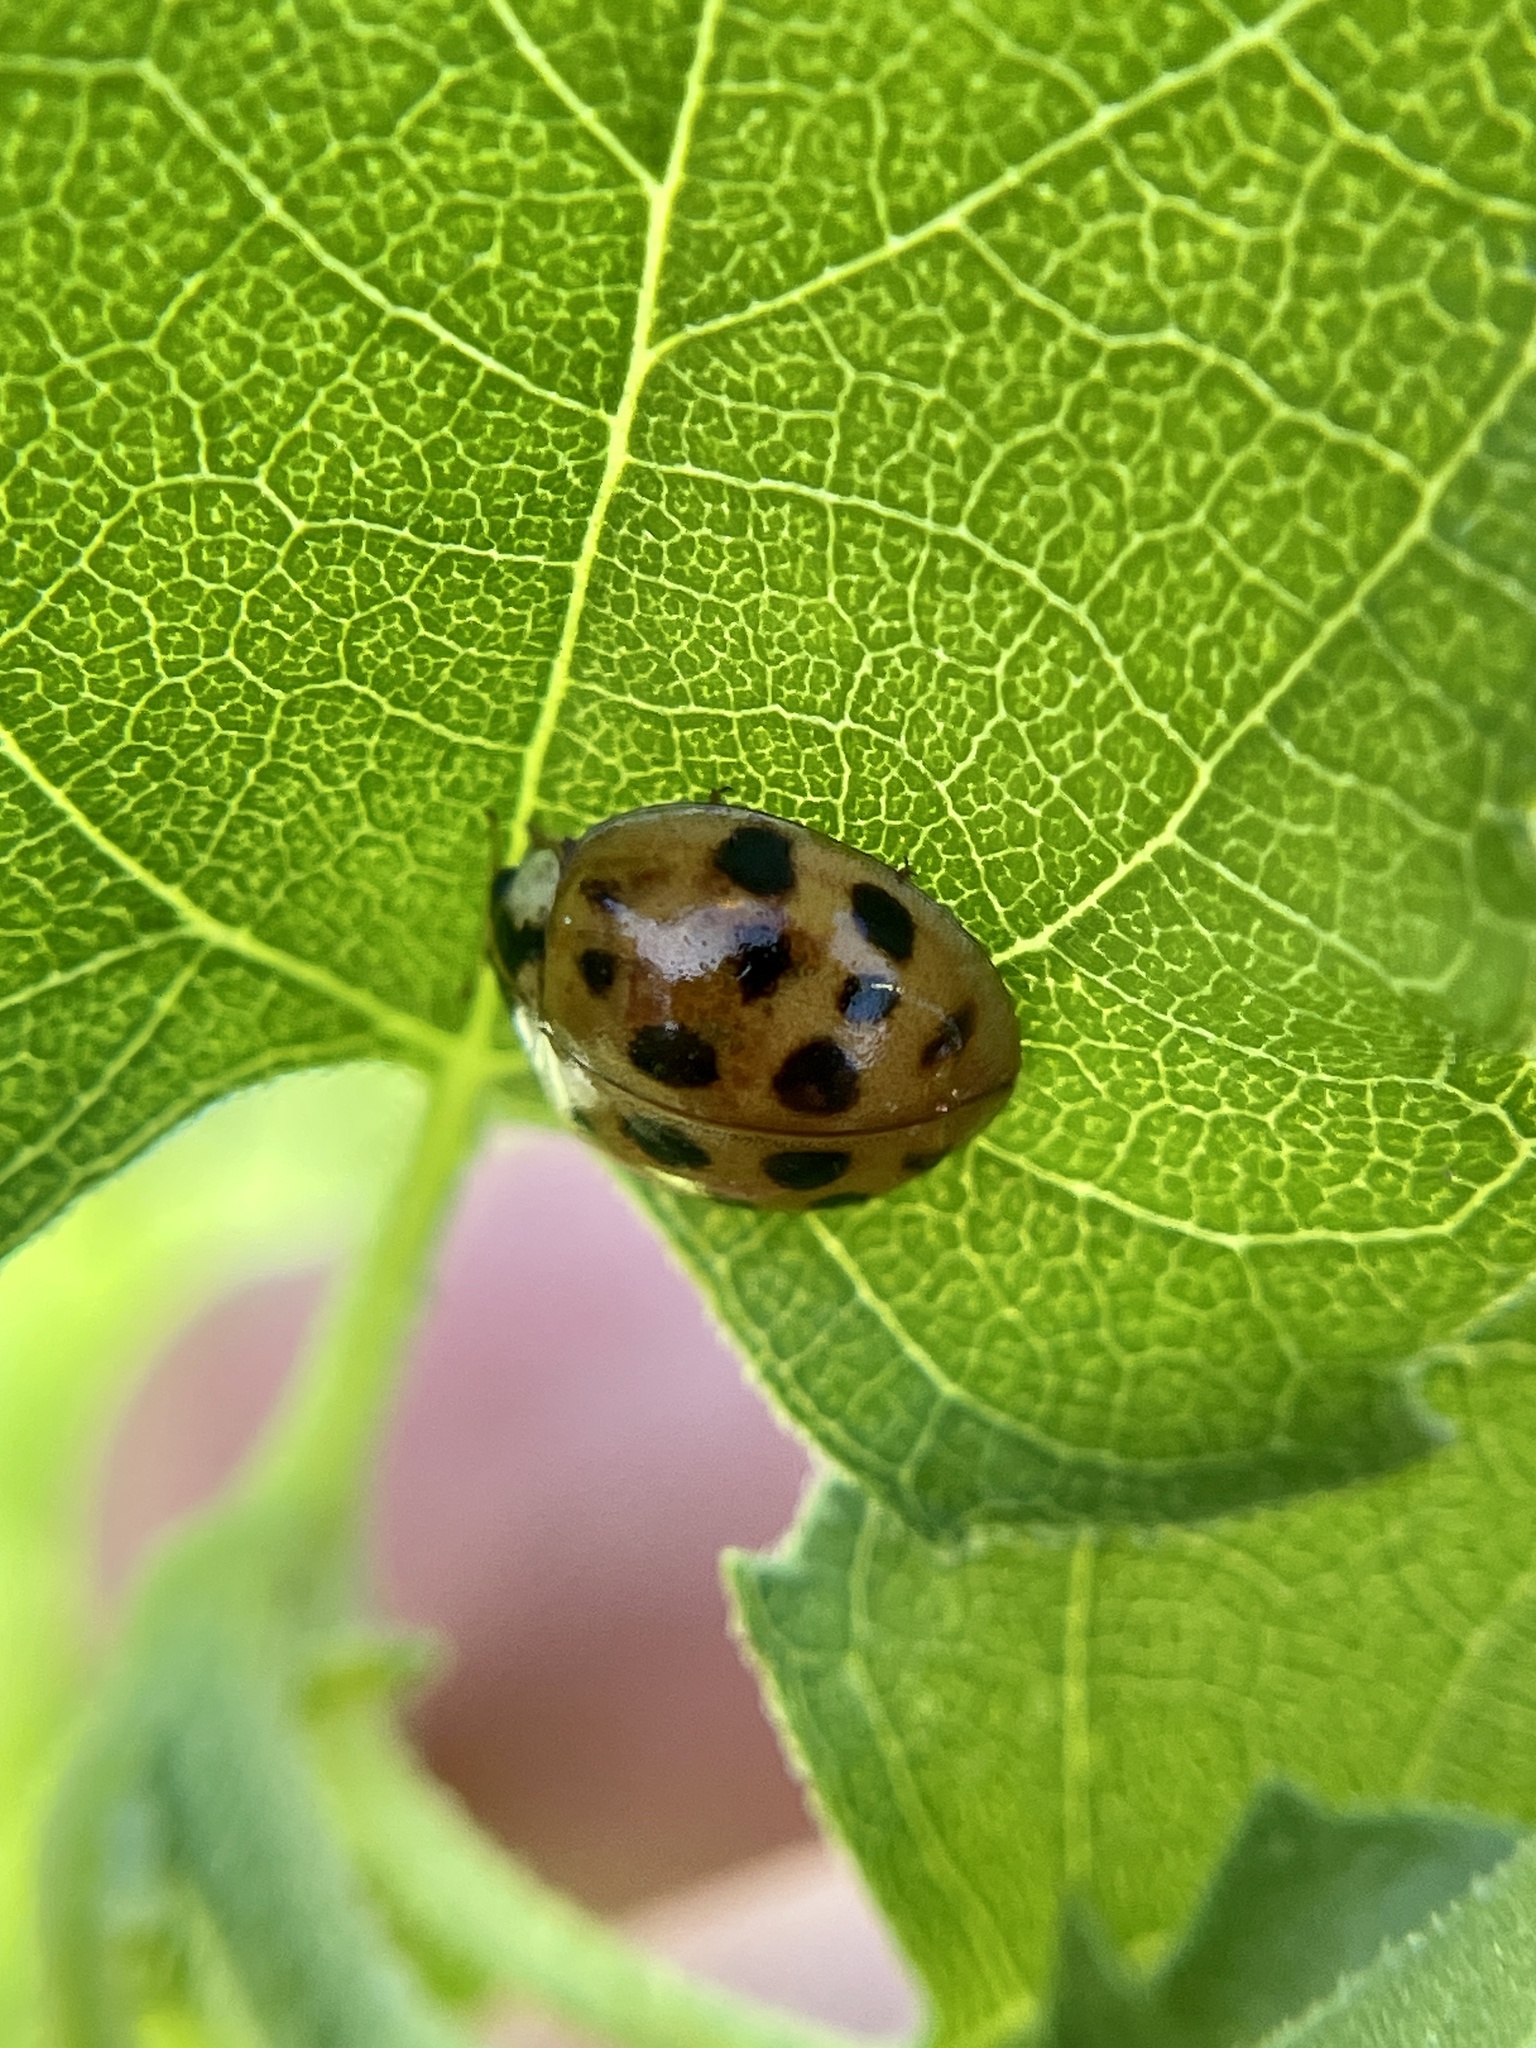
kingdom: Animalia
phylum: Arthropoda
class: Insecta
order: Coleoptera
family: Coccinellidae
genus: Harmonia
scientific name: Harmonia axyridis
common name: Harlequin ladybird
